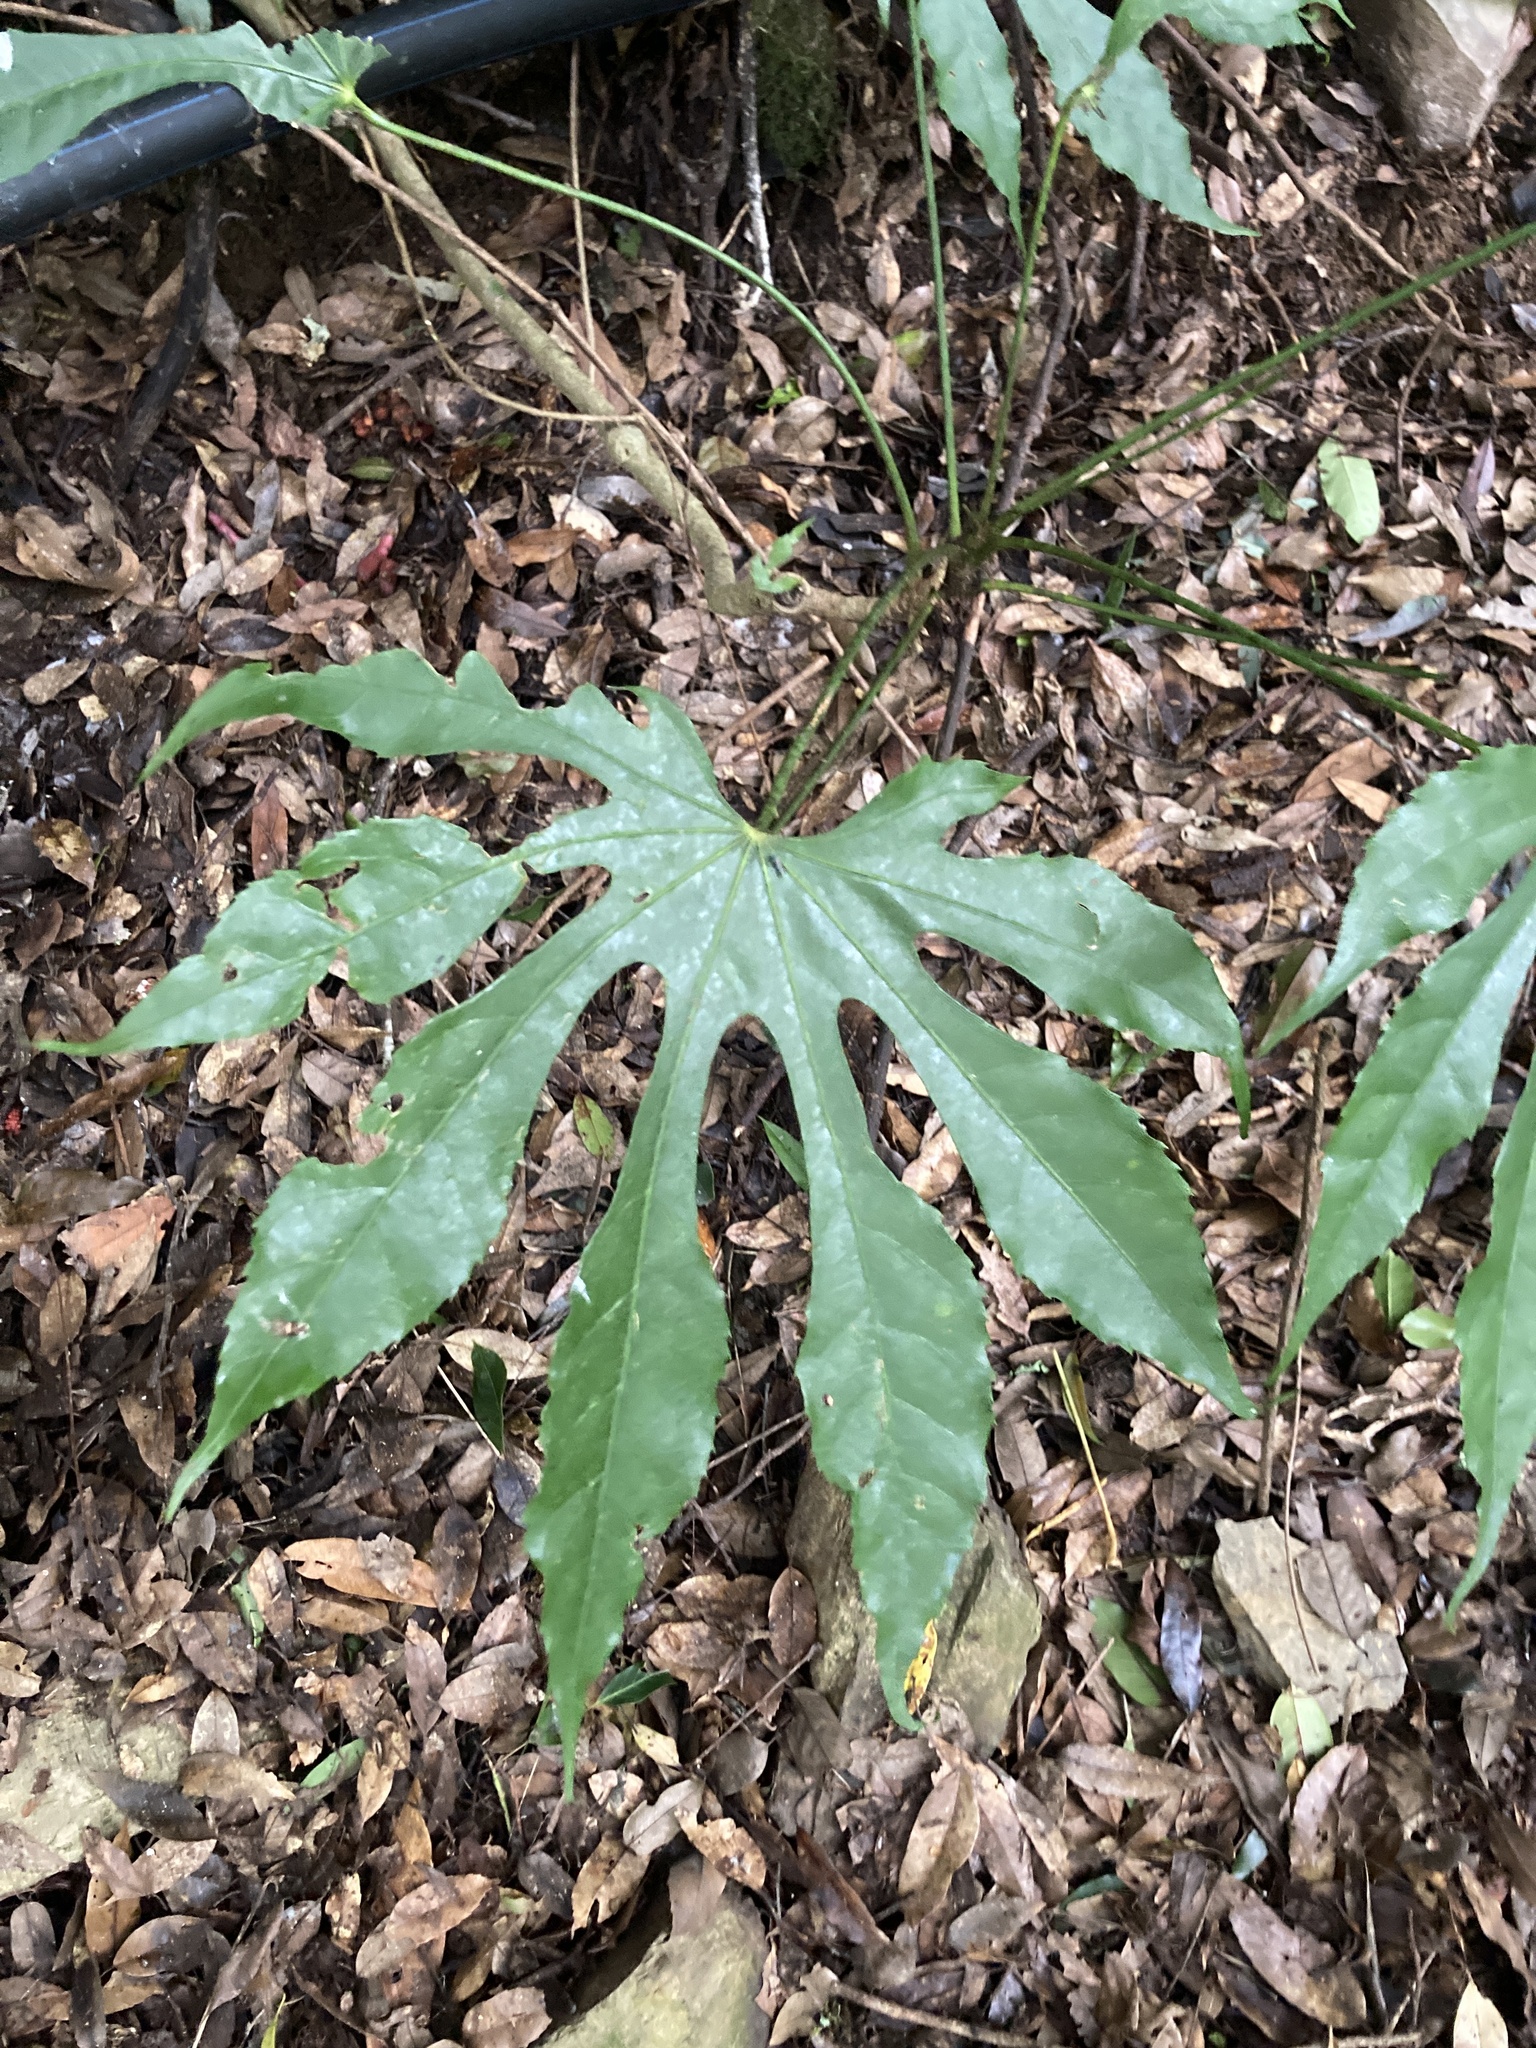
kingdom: Plantae
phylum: Tracheophyta
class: Magnoliopsida
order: Apiales
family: Araliaceae
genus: Fatsia
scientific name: Fatsia polycarpa
